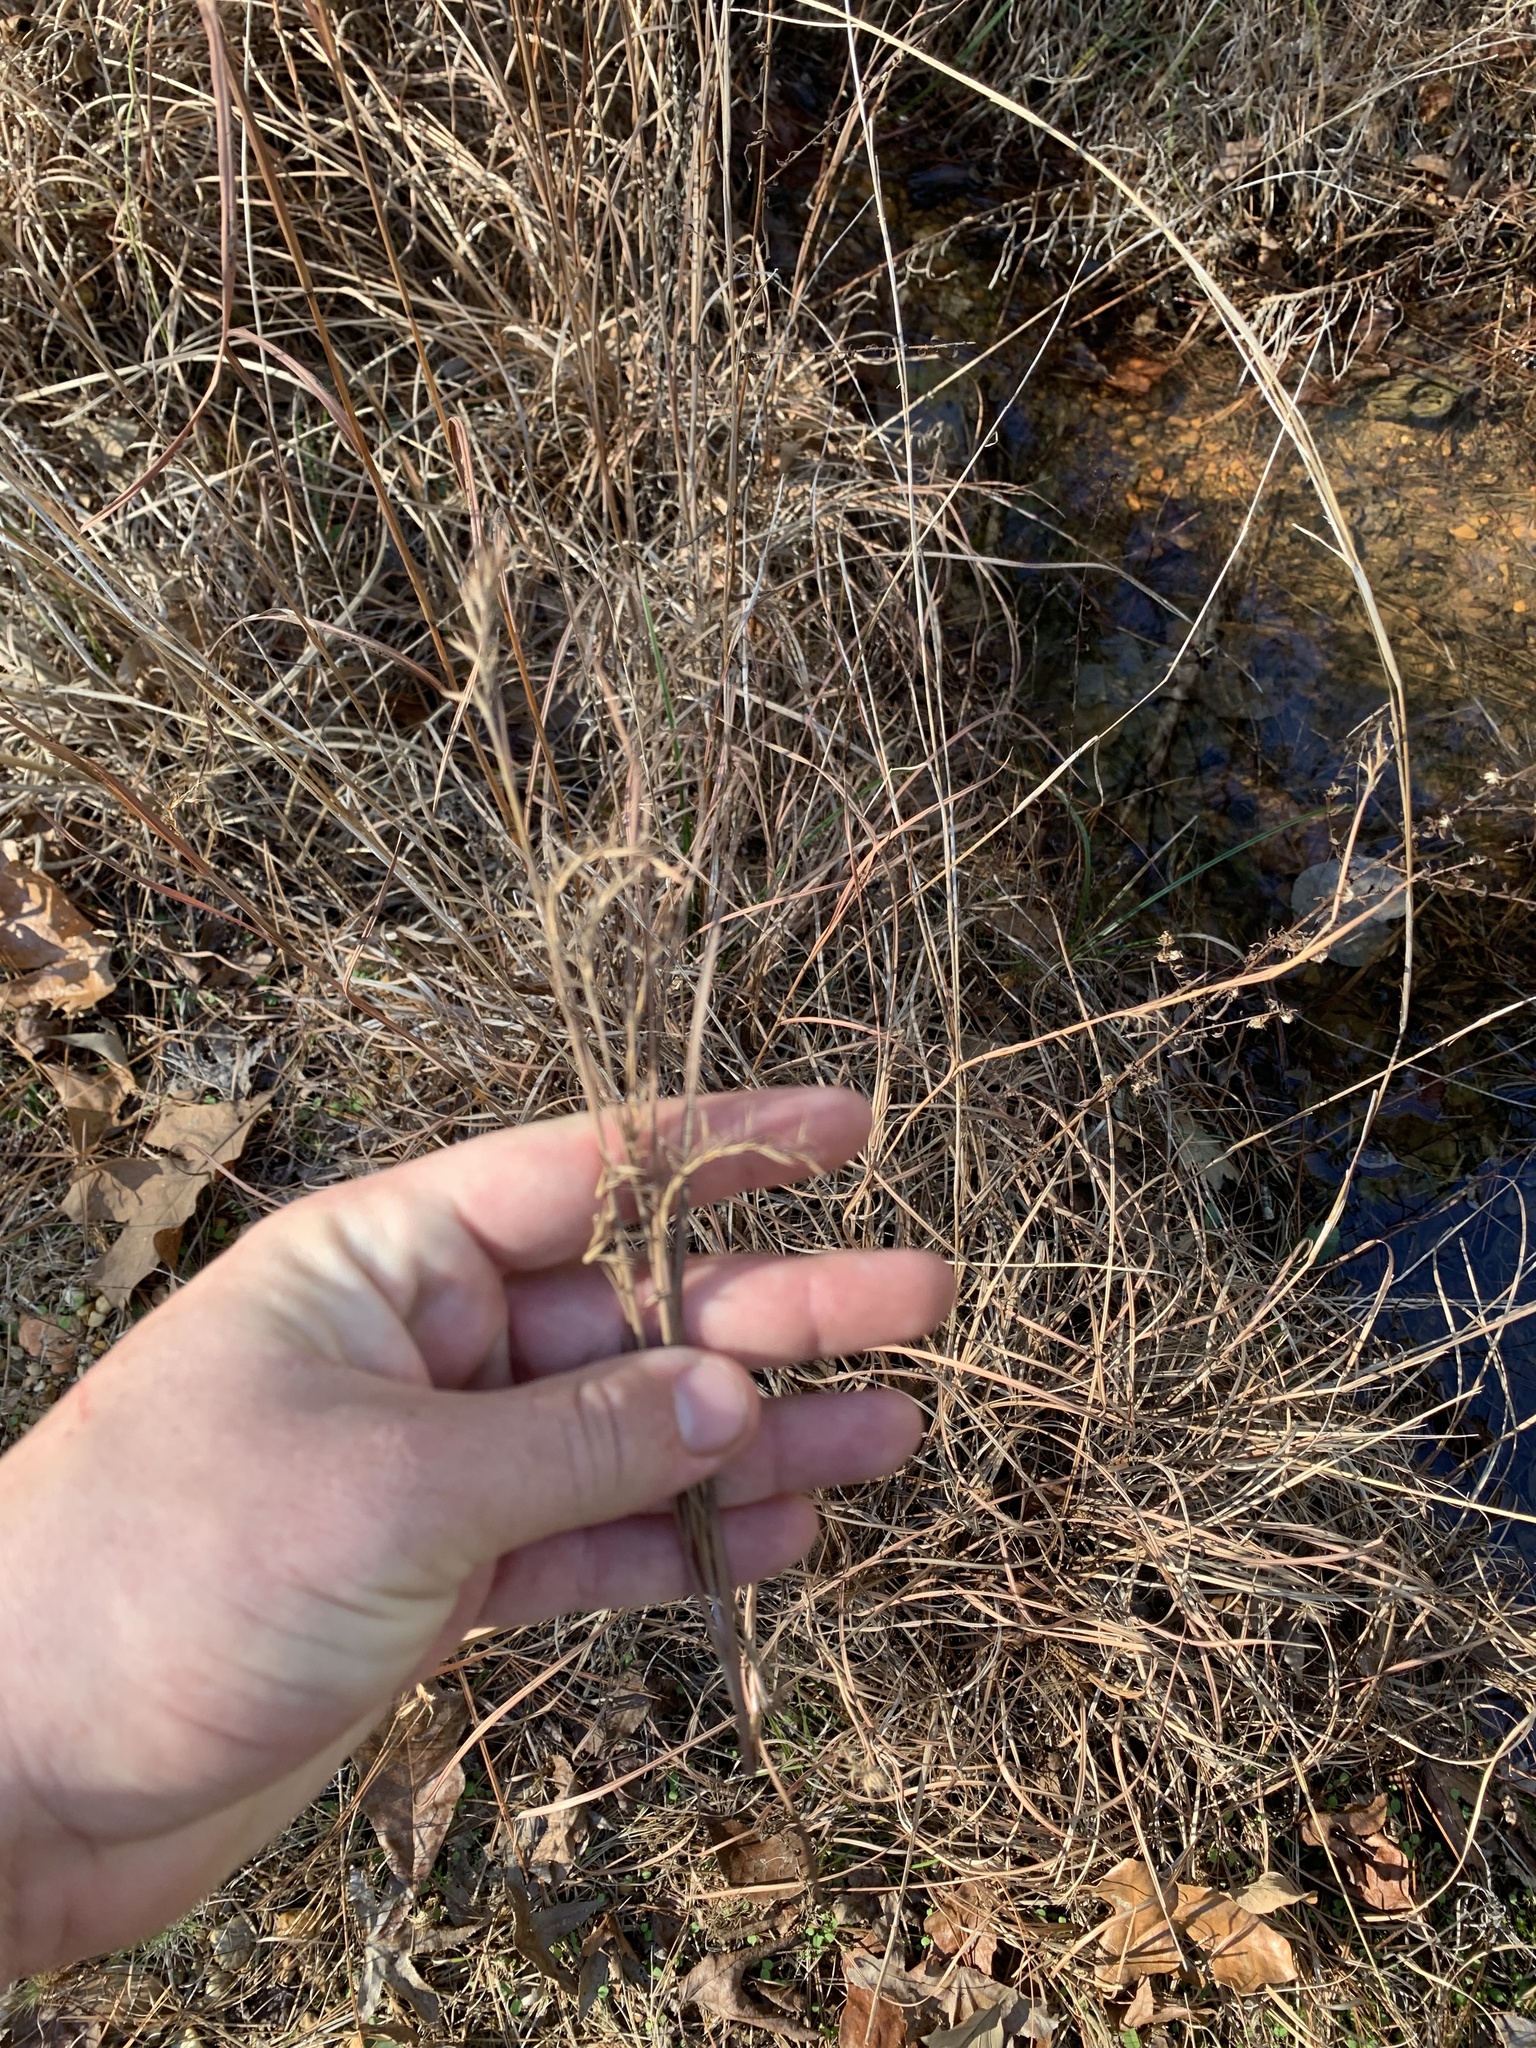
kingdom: Plantae
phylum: Tracheophyta
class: Liliopsida
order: Poales
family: Poaceae
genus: Schizachyrium
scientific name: Schizachyrium scoparium
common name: Little bluestem
